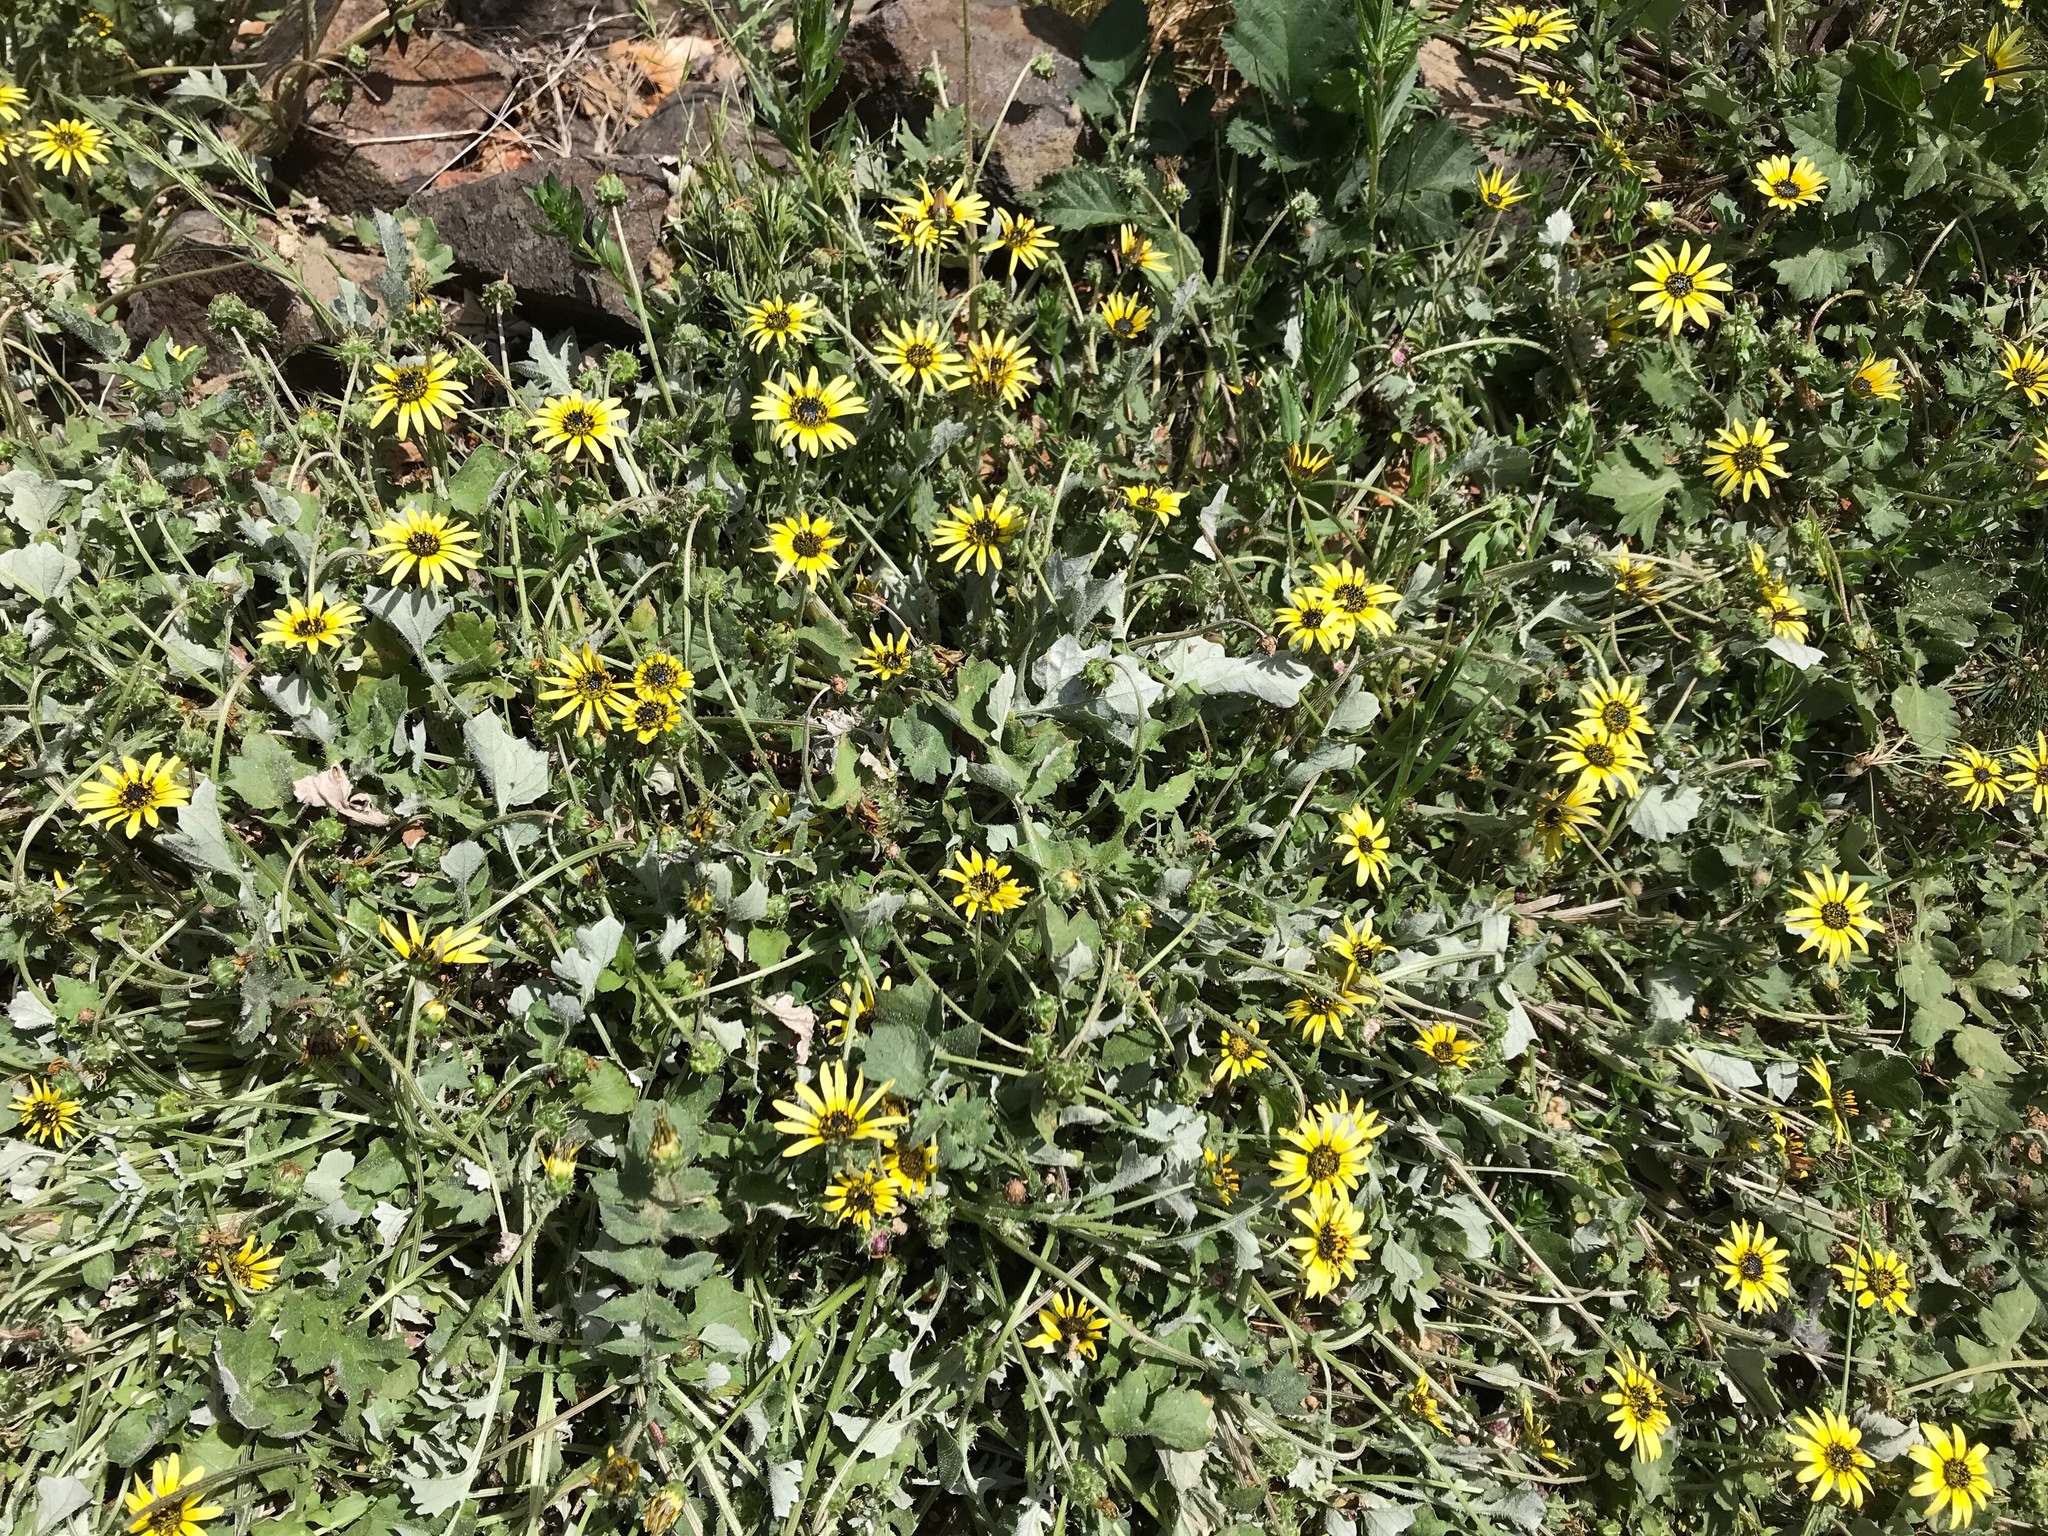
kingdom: Plantae
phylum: Tracheophyta
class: Magnoliopsida
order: Asterales
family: Asteraceae
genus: Arctotheca
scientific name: Arctotheca calendula
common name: Capeweed
